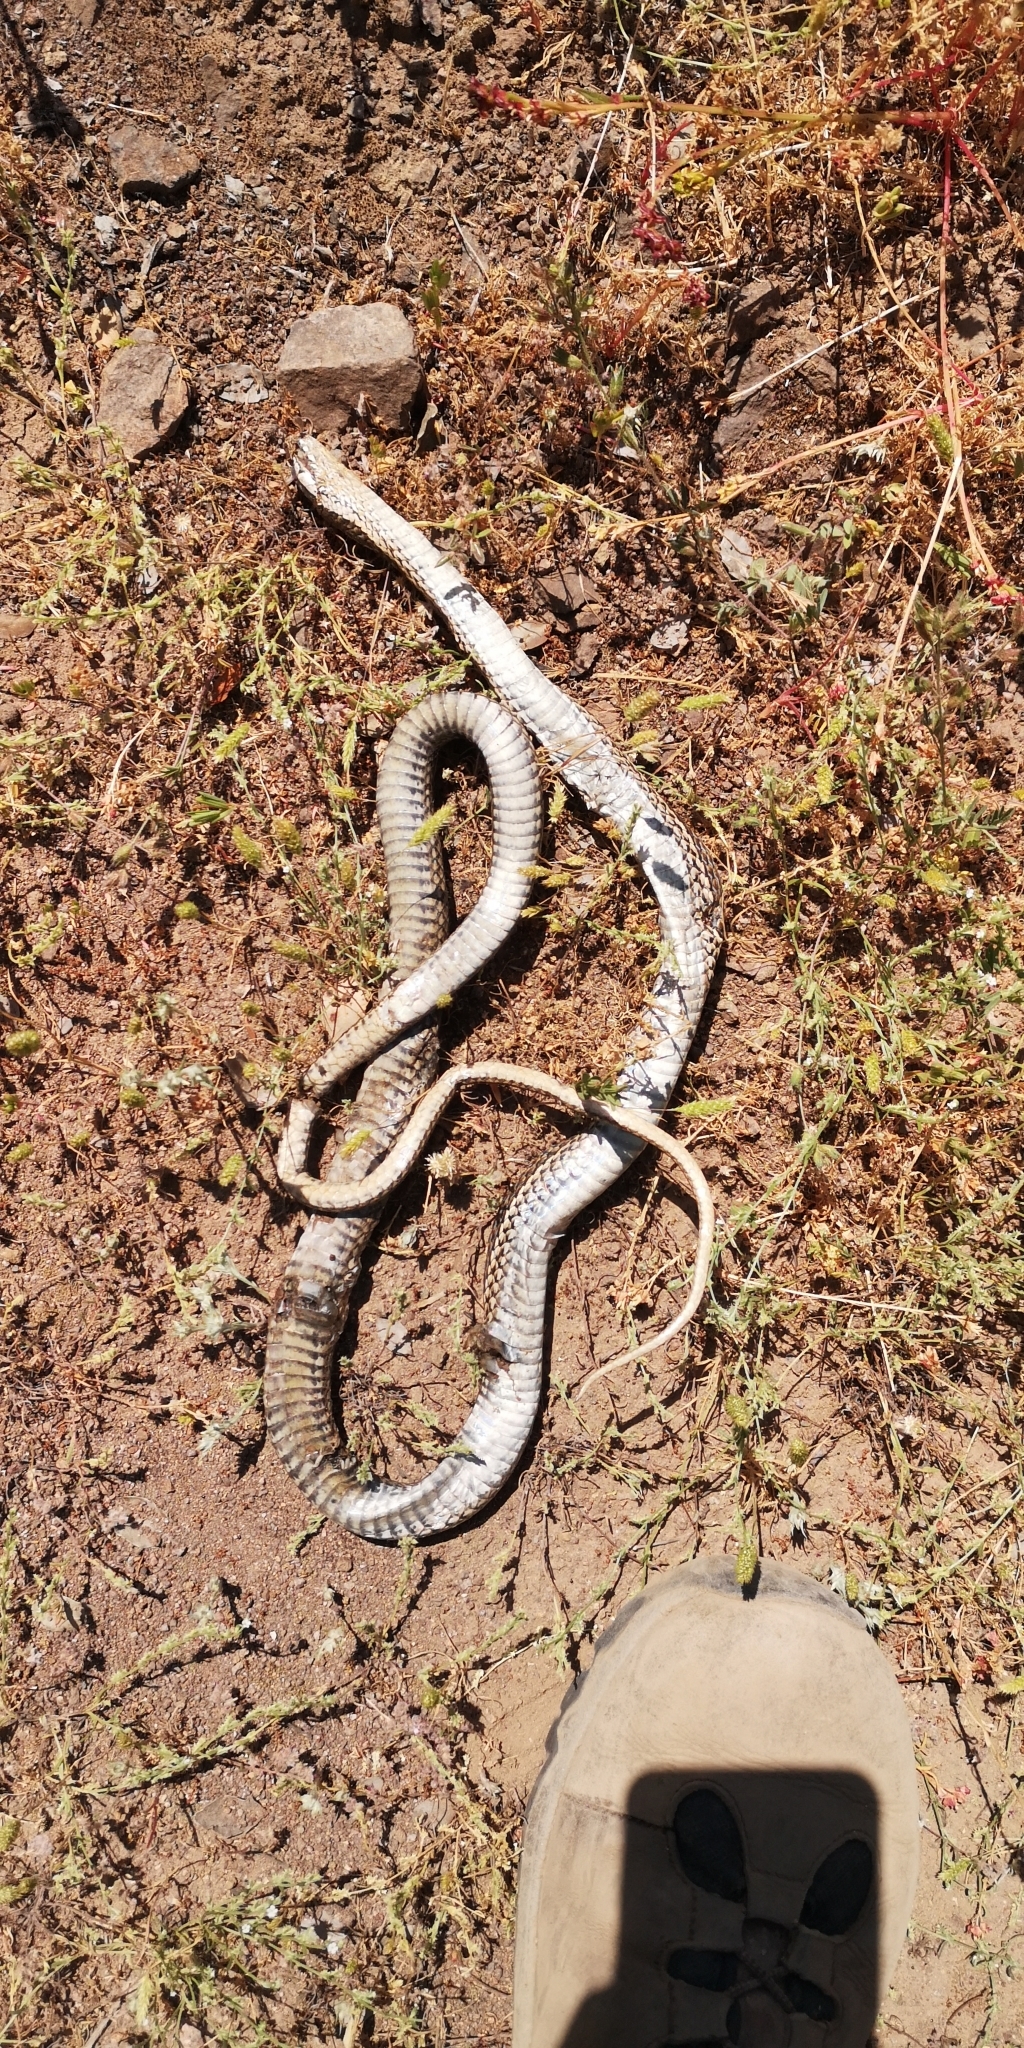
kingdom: Animalia
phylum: Chordata
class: Squamata
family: Colubridae
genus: Philodryas
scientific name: Philodryas chamissonis
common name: Chilean green racer
